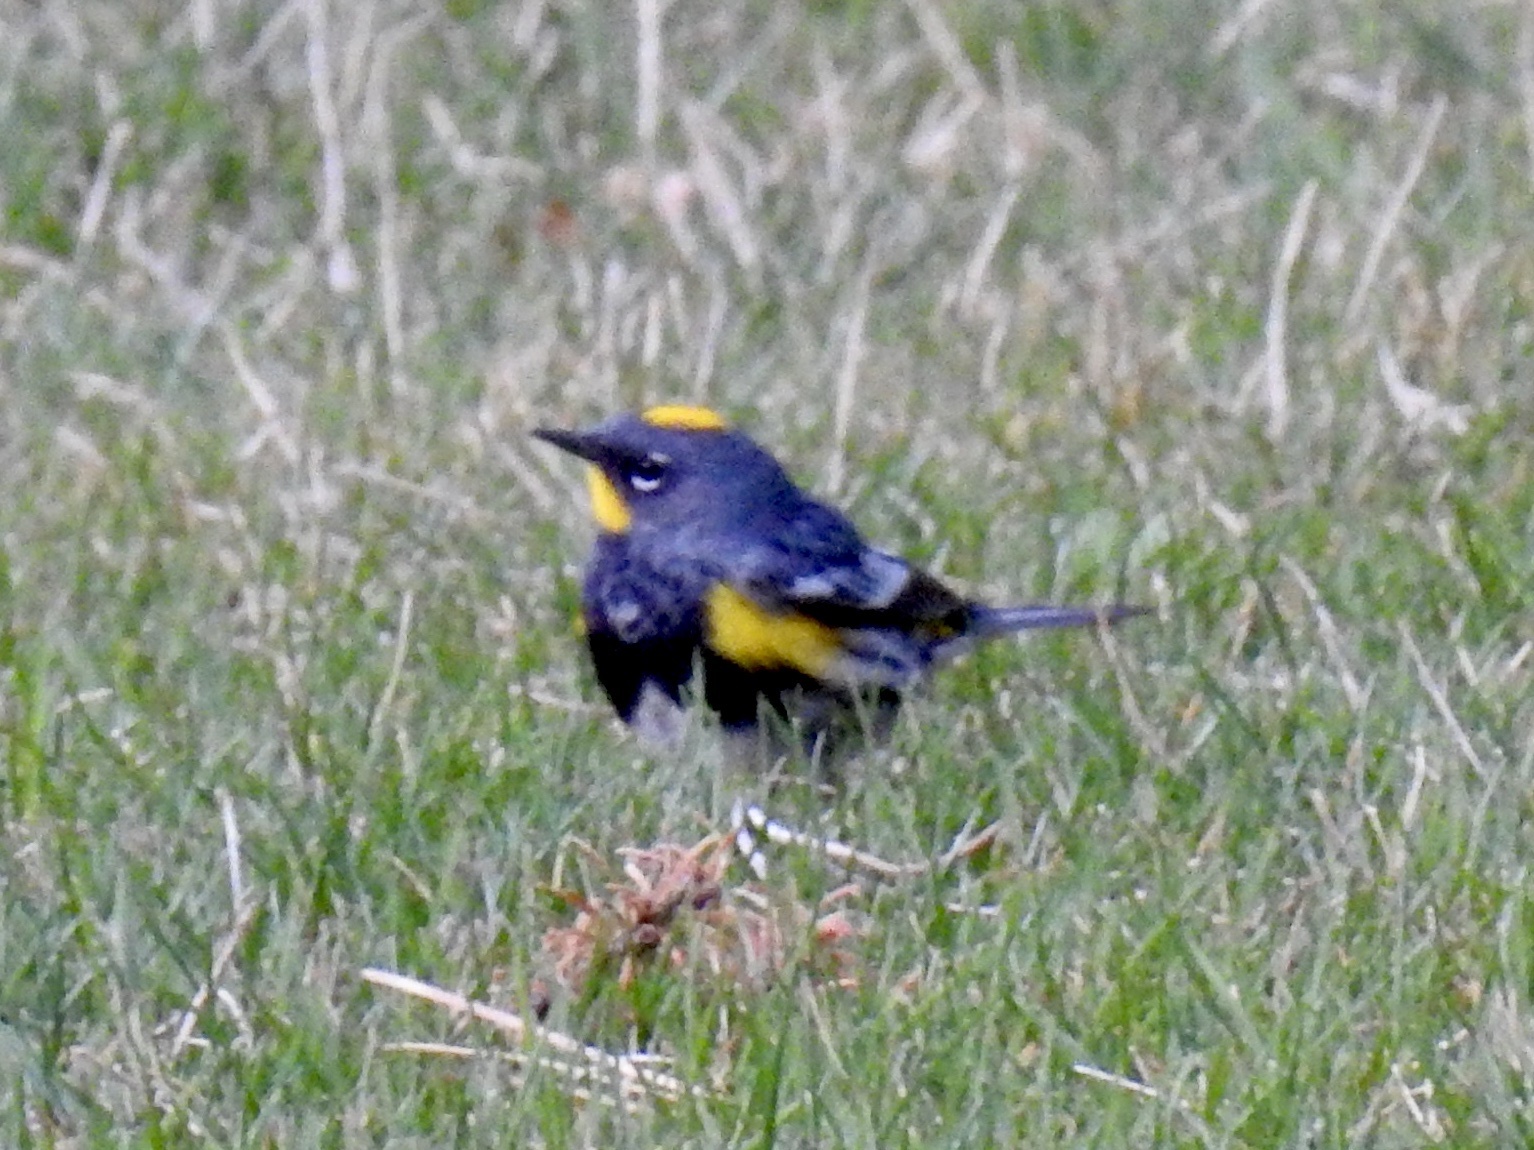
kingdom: Animalia
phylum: Chordata
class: Aves
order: Passeriformes
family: Parulidae
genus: Setophaga
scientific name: Setophaga coronata
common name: Myrtle warbler
